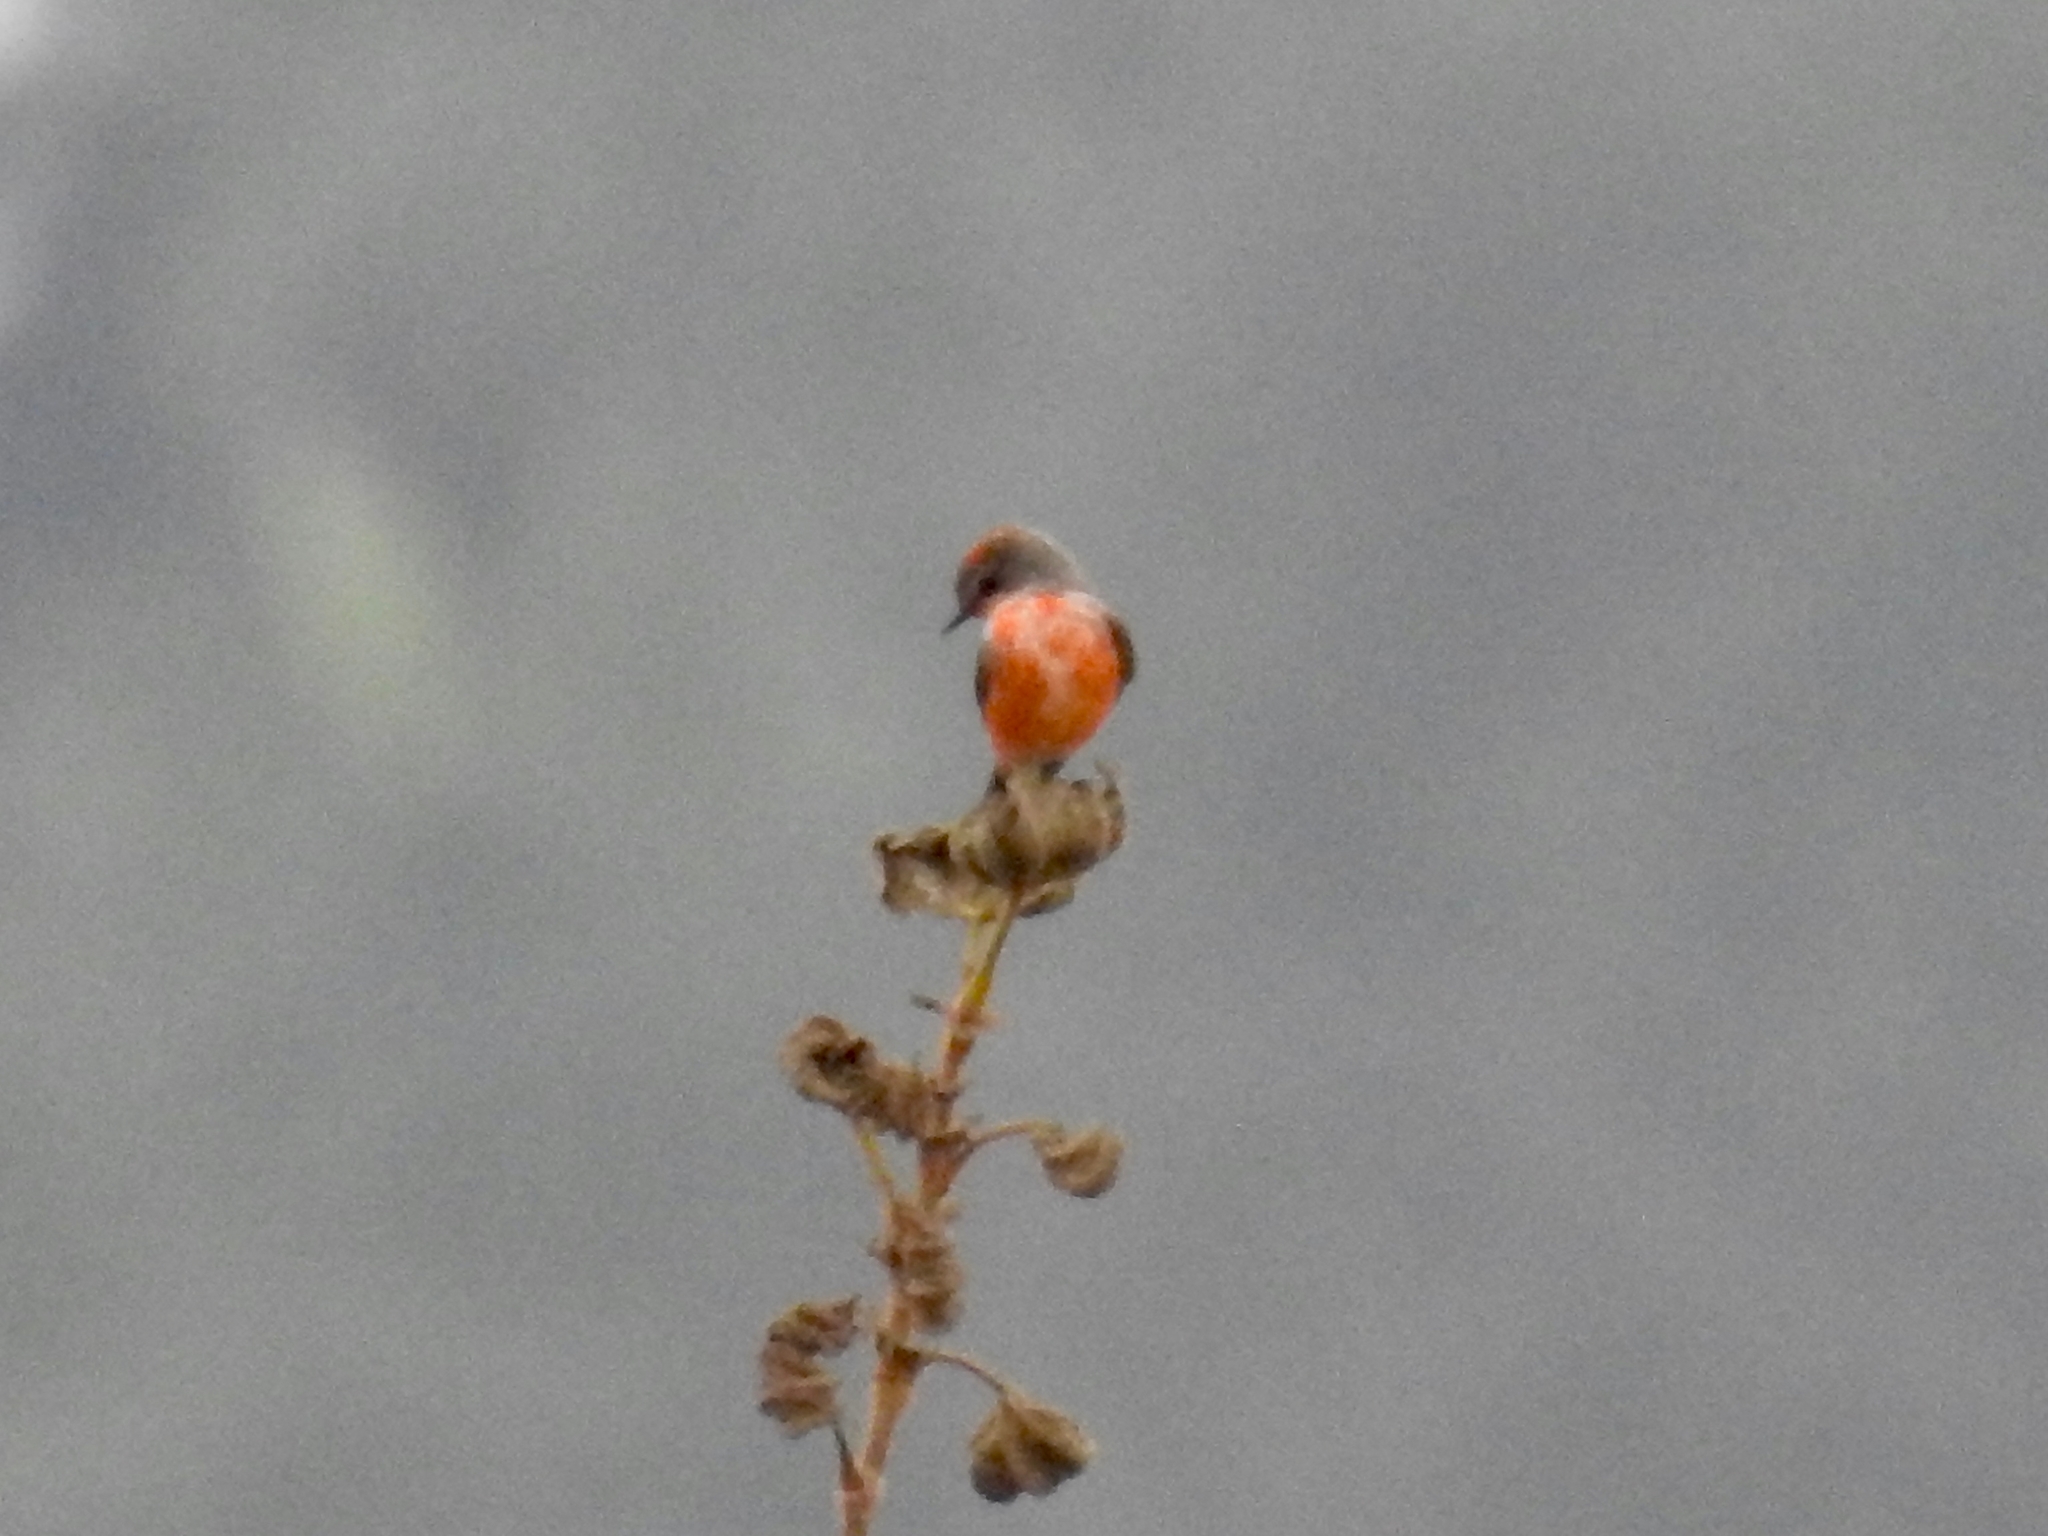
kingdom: Animalia
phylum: Chordata
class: Aves
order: Passeriformes
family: Tyrannidae
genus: Pyrocephalus
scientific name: Pyrocephalus rubinus
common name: Vermilion flycatcher
